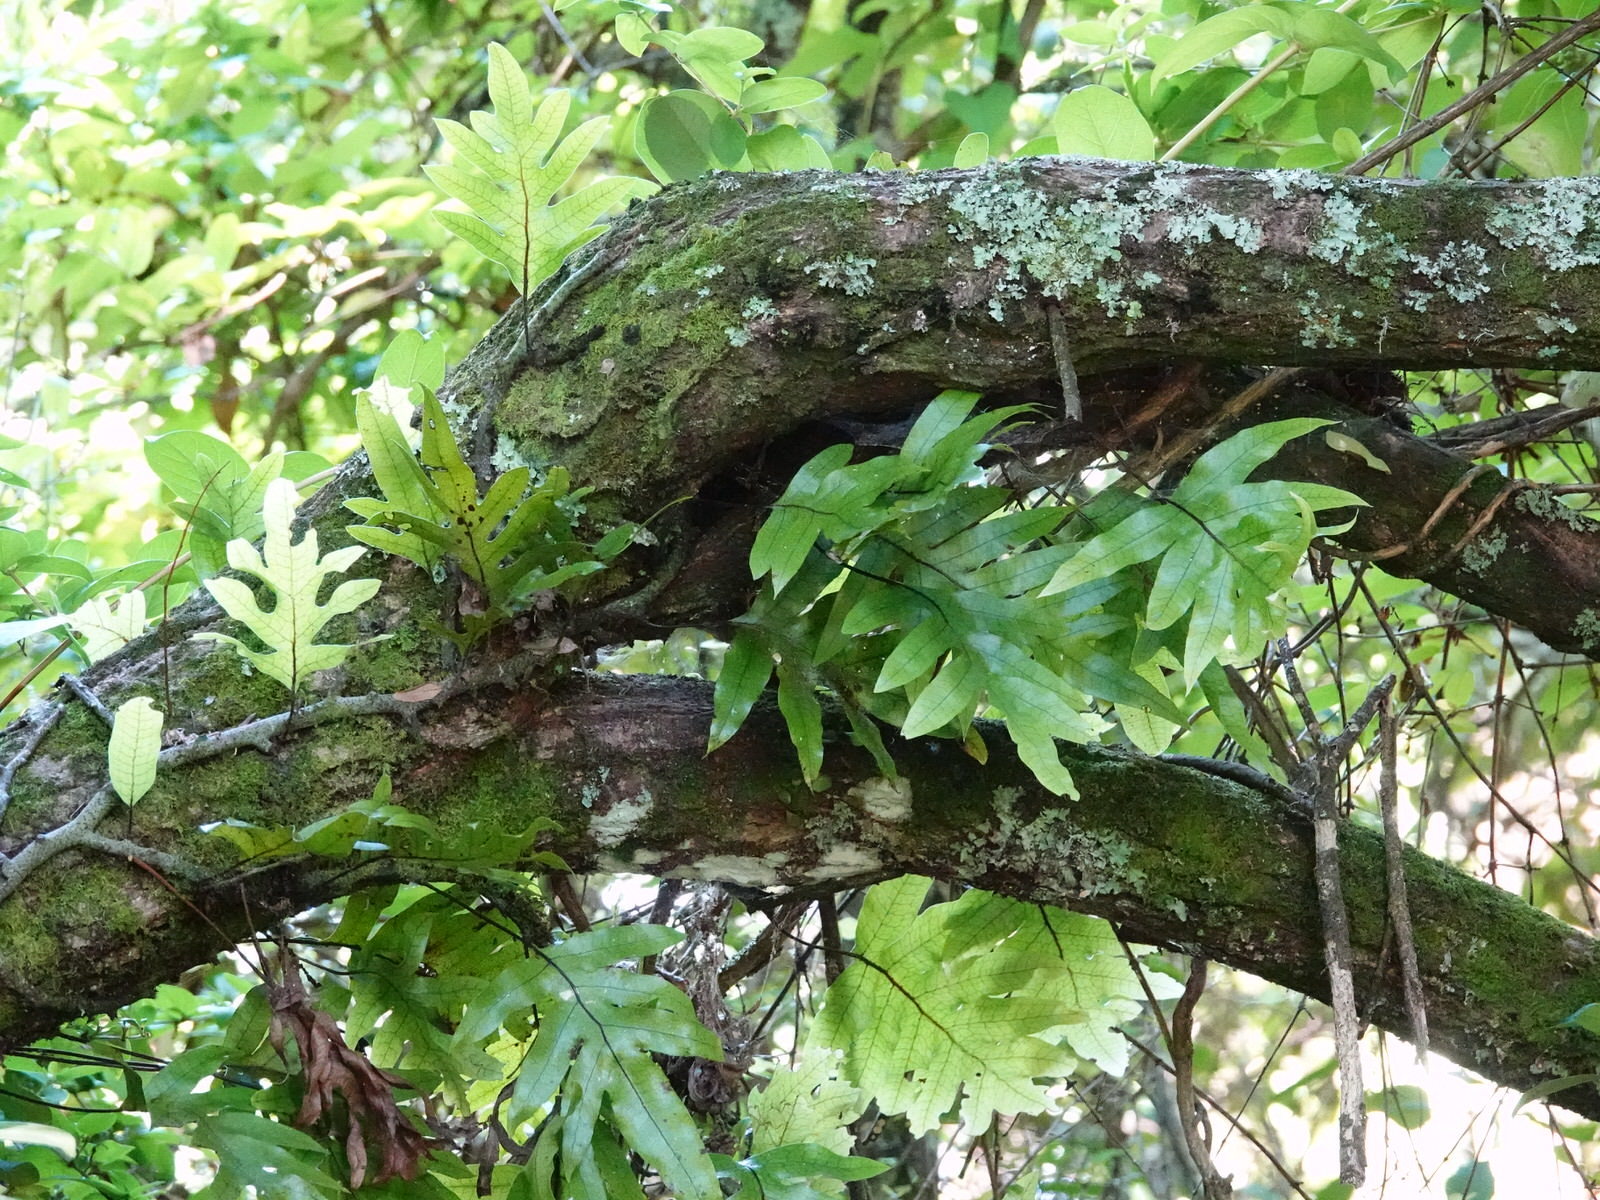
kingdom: Plantae
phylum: Tracheophyta
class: Polypodiopsida
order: Polypodiales
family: Polypodiaceae
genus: Lecanopteris
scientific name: Lecanopteris pustulata
